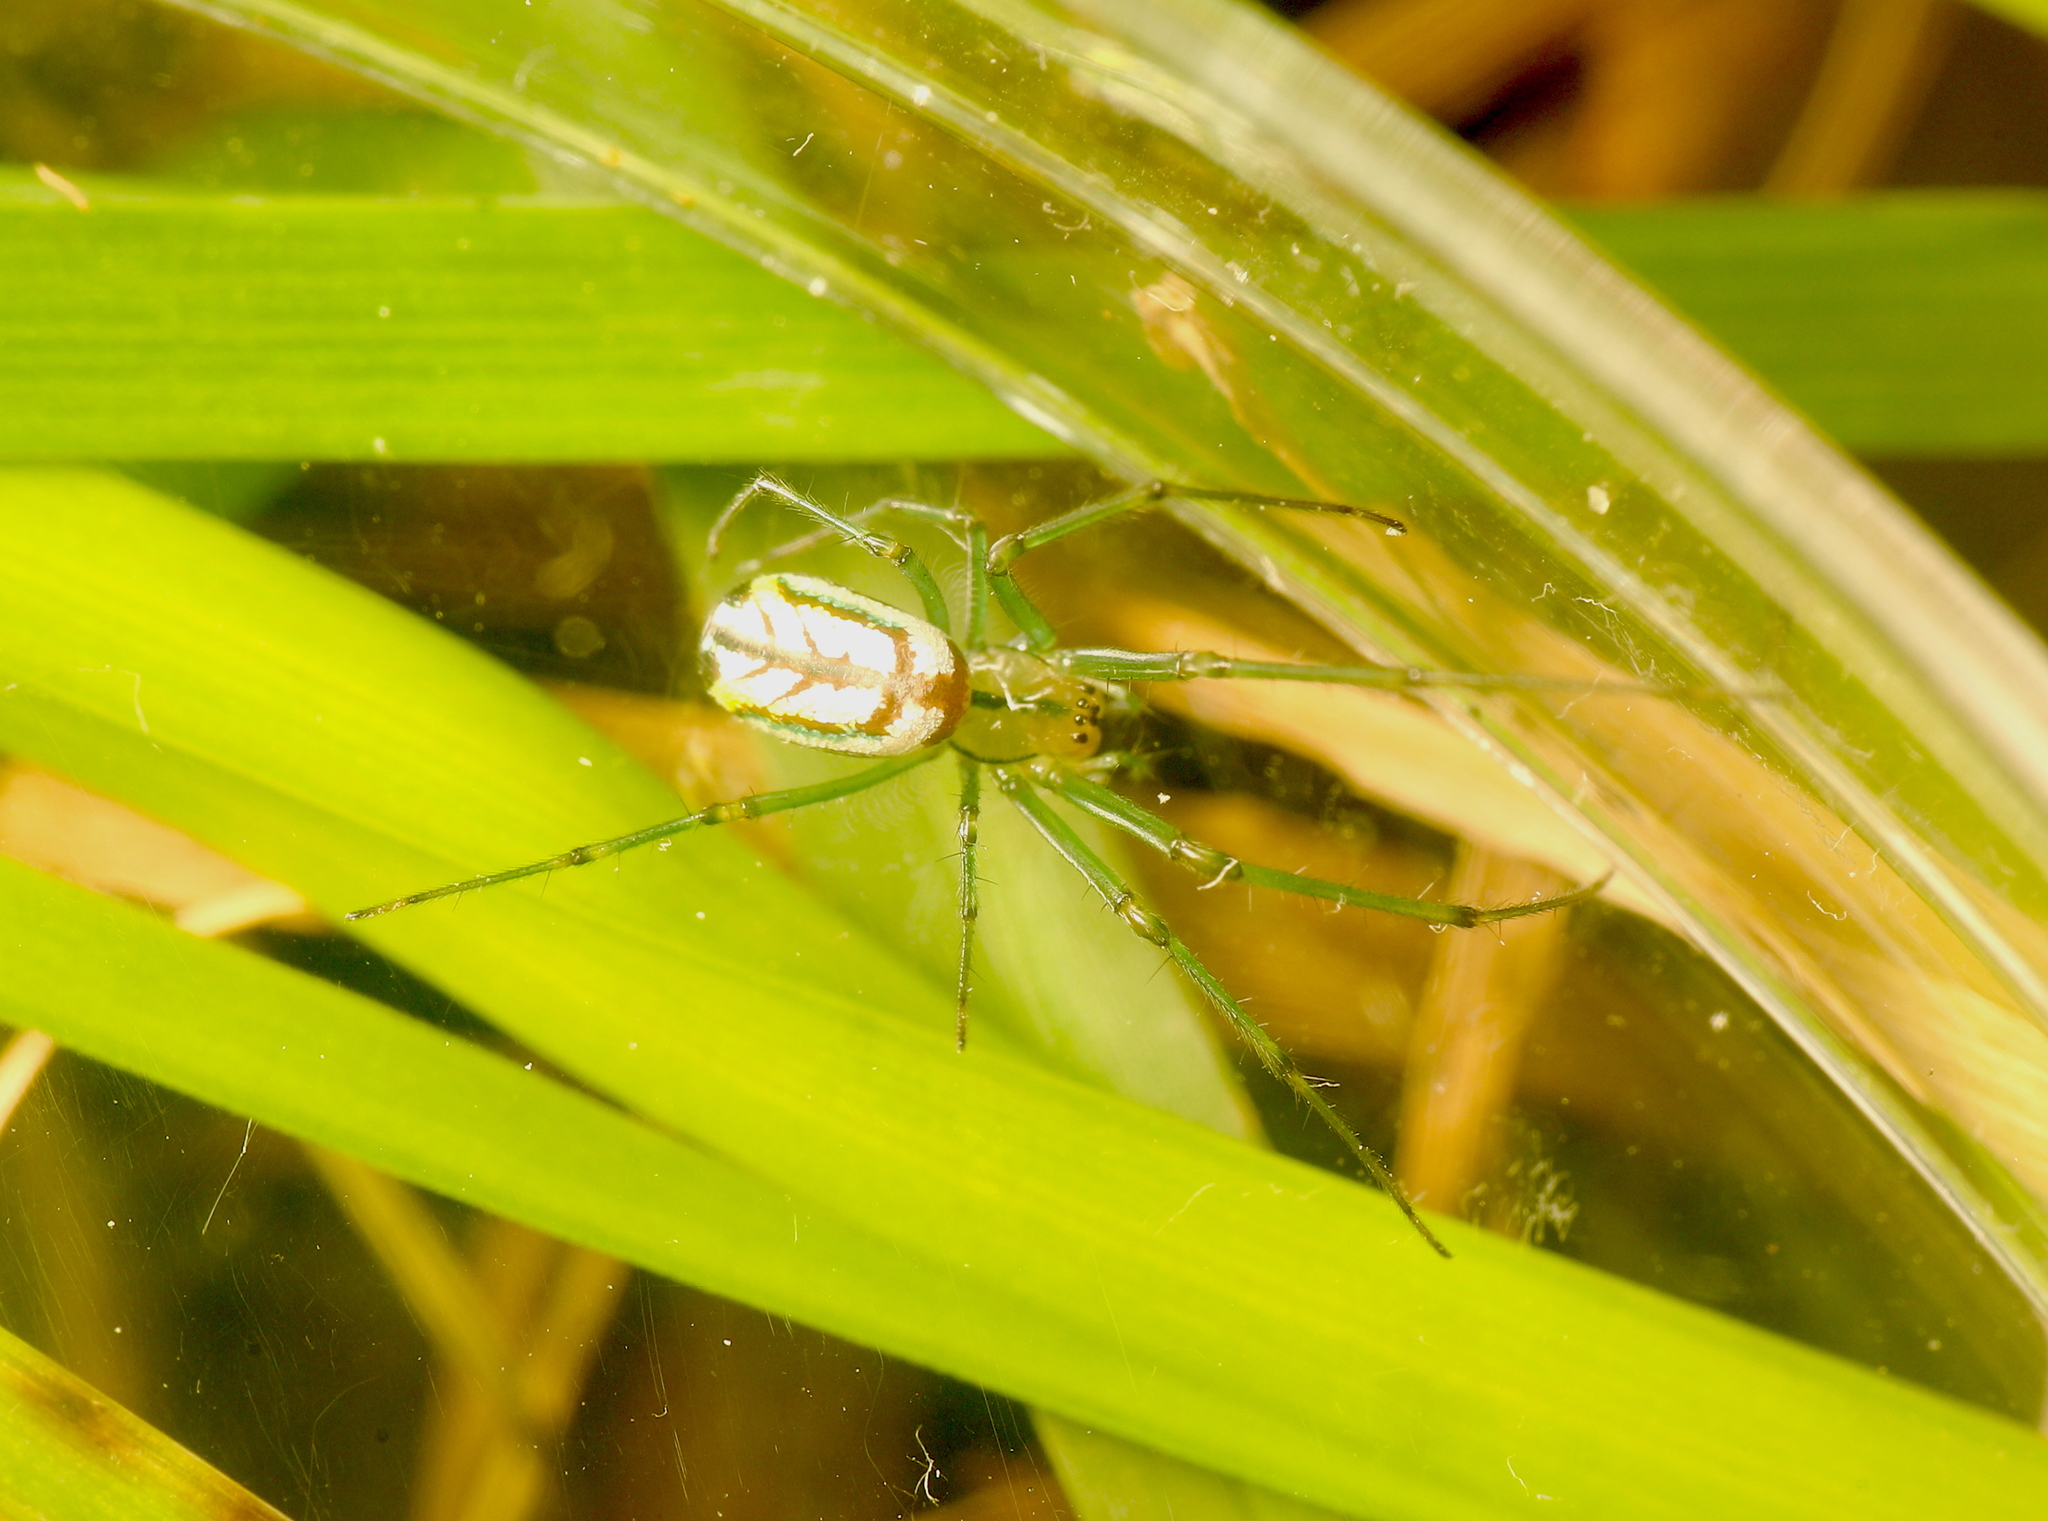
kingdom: Animalia
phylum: Arthropoda
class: Arachnida
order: Araneae
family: Tetragnathidae
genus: Leucauge
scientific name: Leucauge venusta
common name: Longjawed orb weavers
